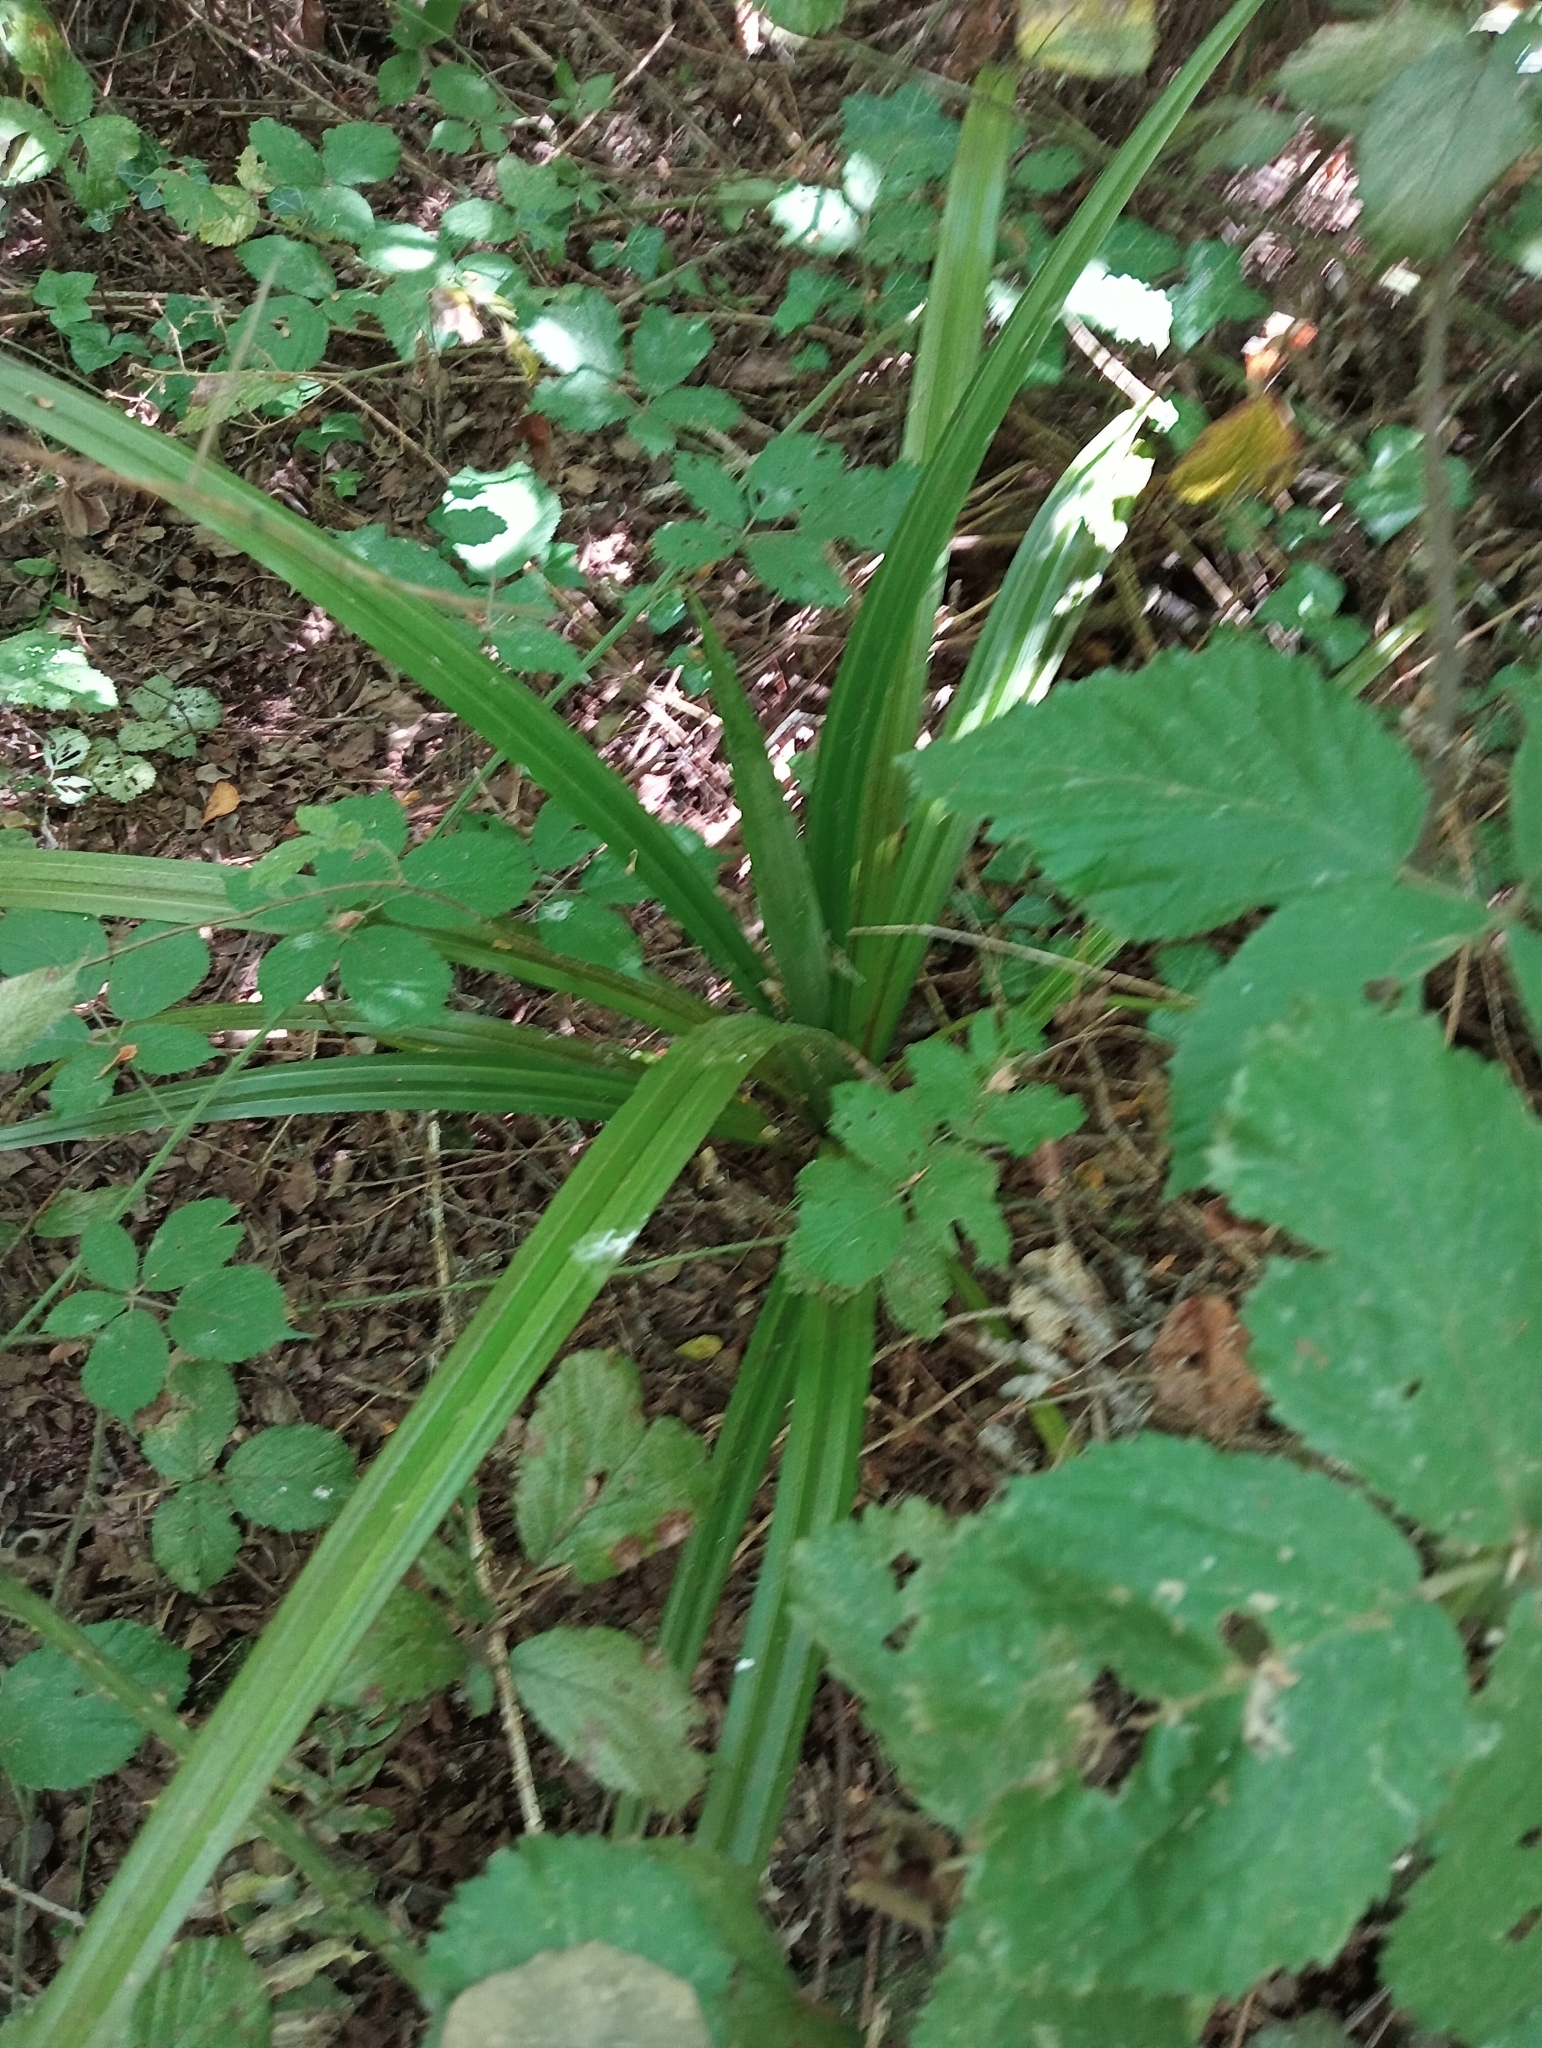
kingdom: Plantae
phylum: Tracheophyta
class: Liliopsida
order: Asparagales
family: Asteliaceae
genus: Astelia
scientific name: Astelia fragrans
